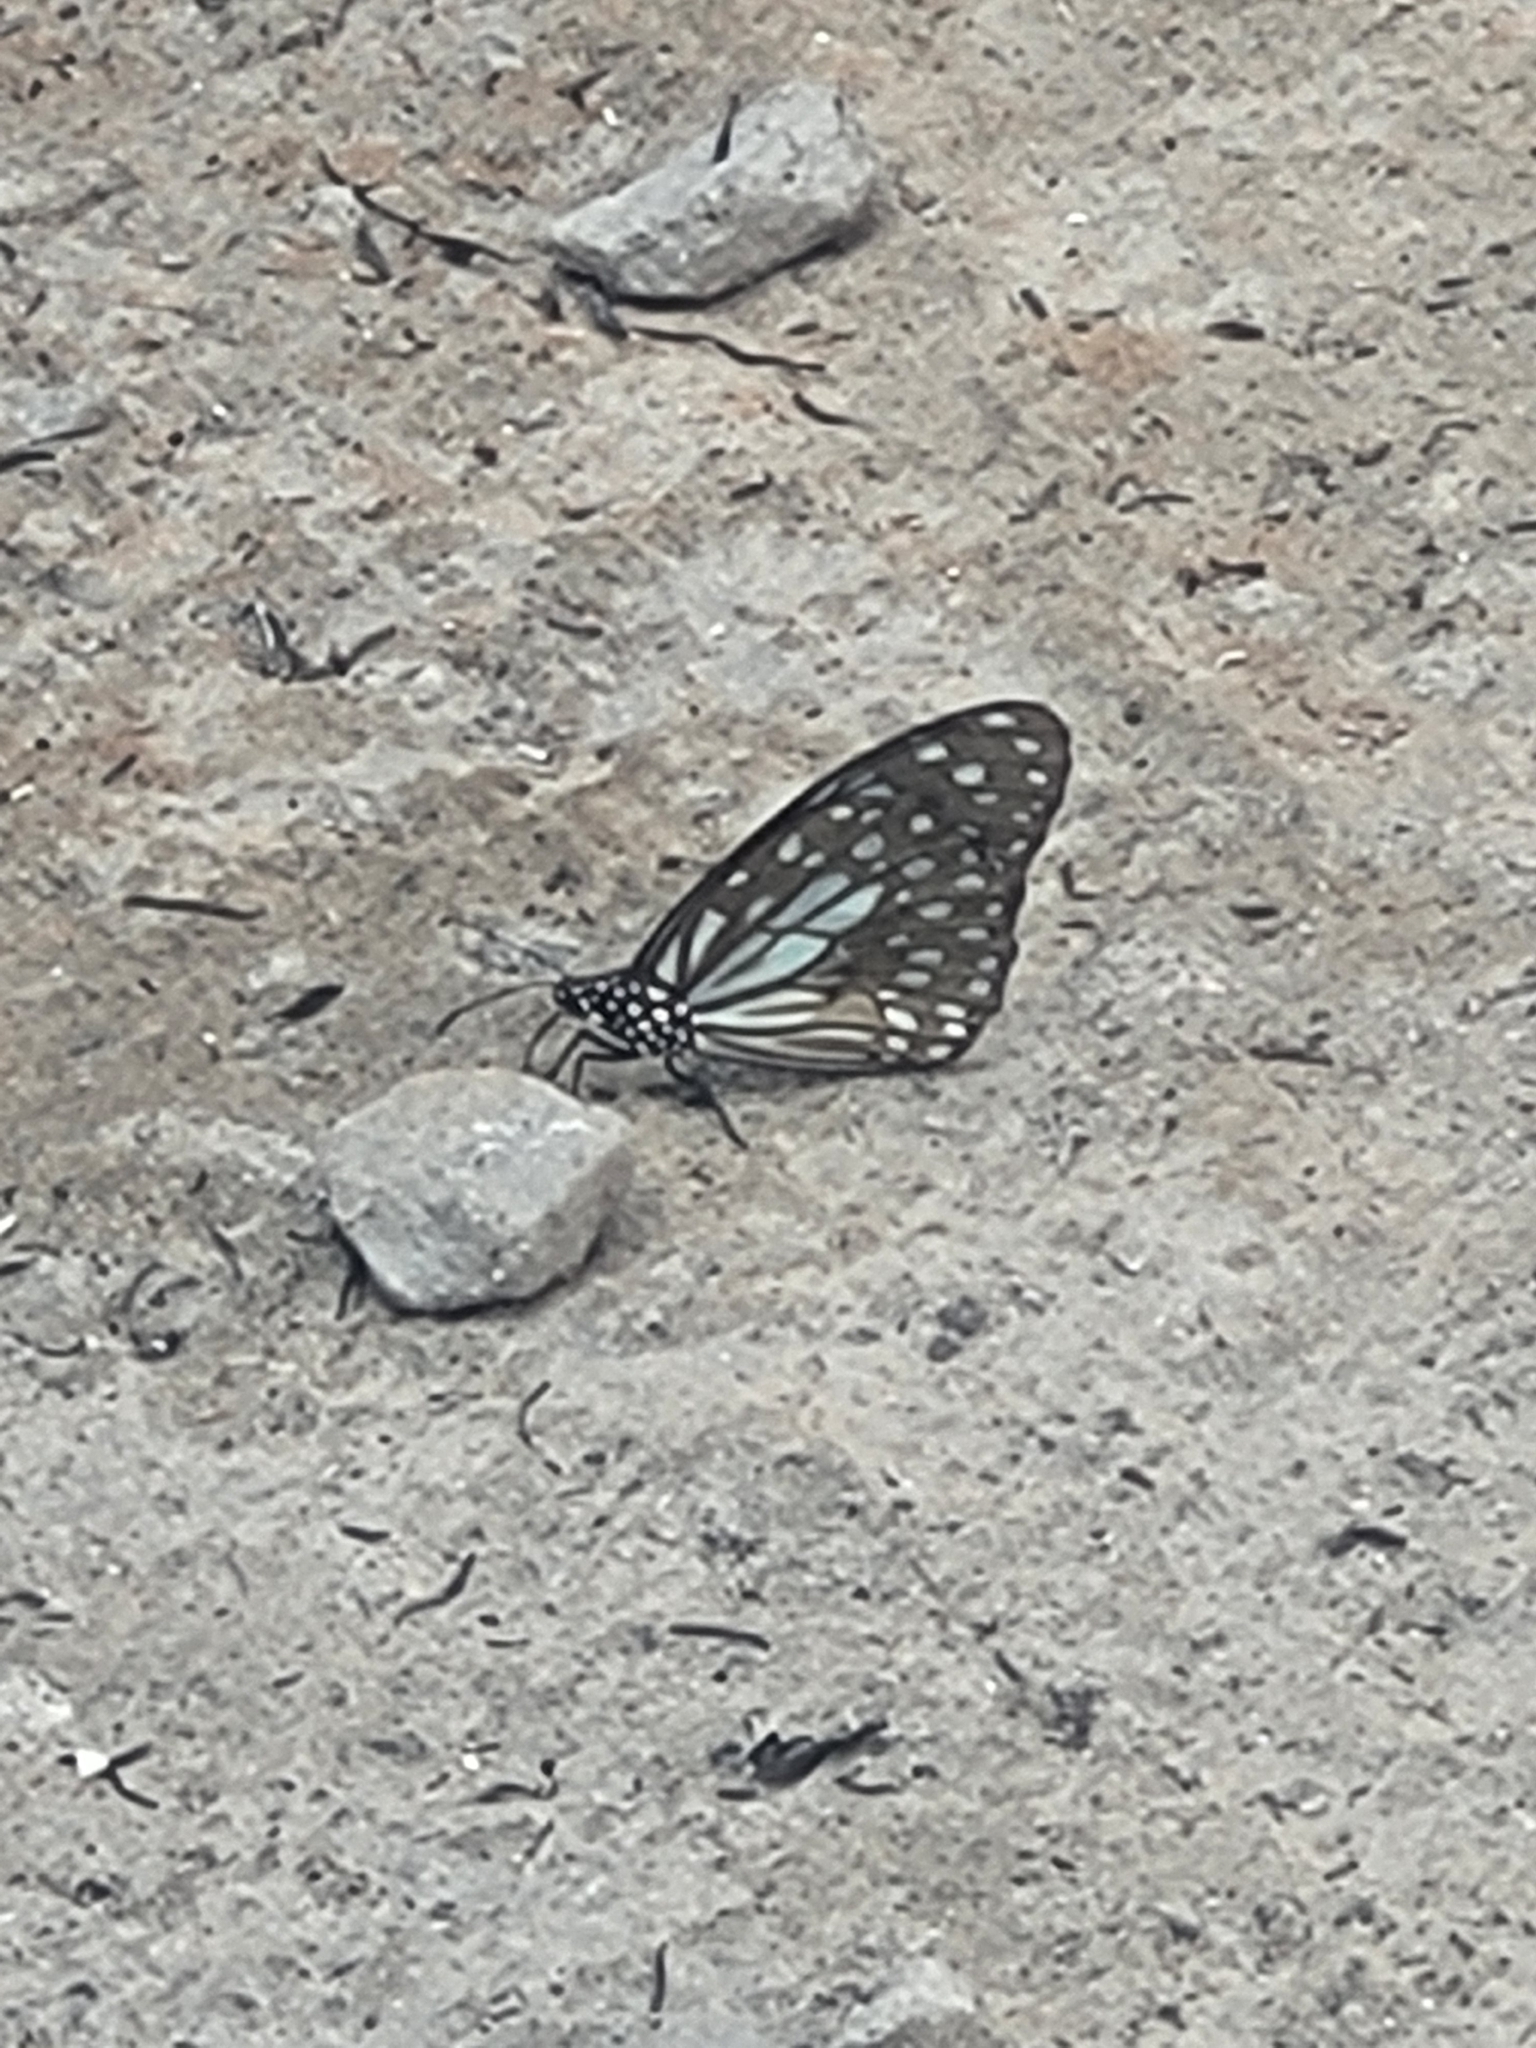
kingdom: Animalia
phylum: Arthropoda
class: Insecta
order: Lepidoptera
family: Nymphalidae
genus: Tirumala
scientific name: Tirumala limniace
